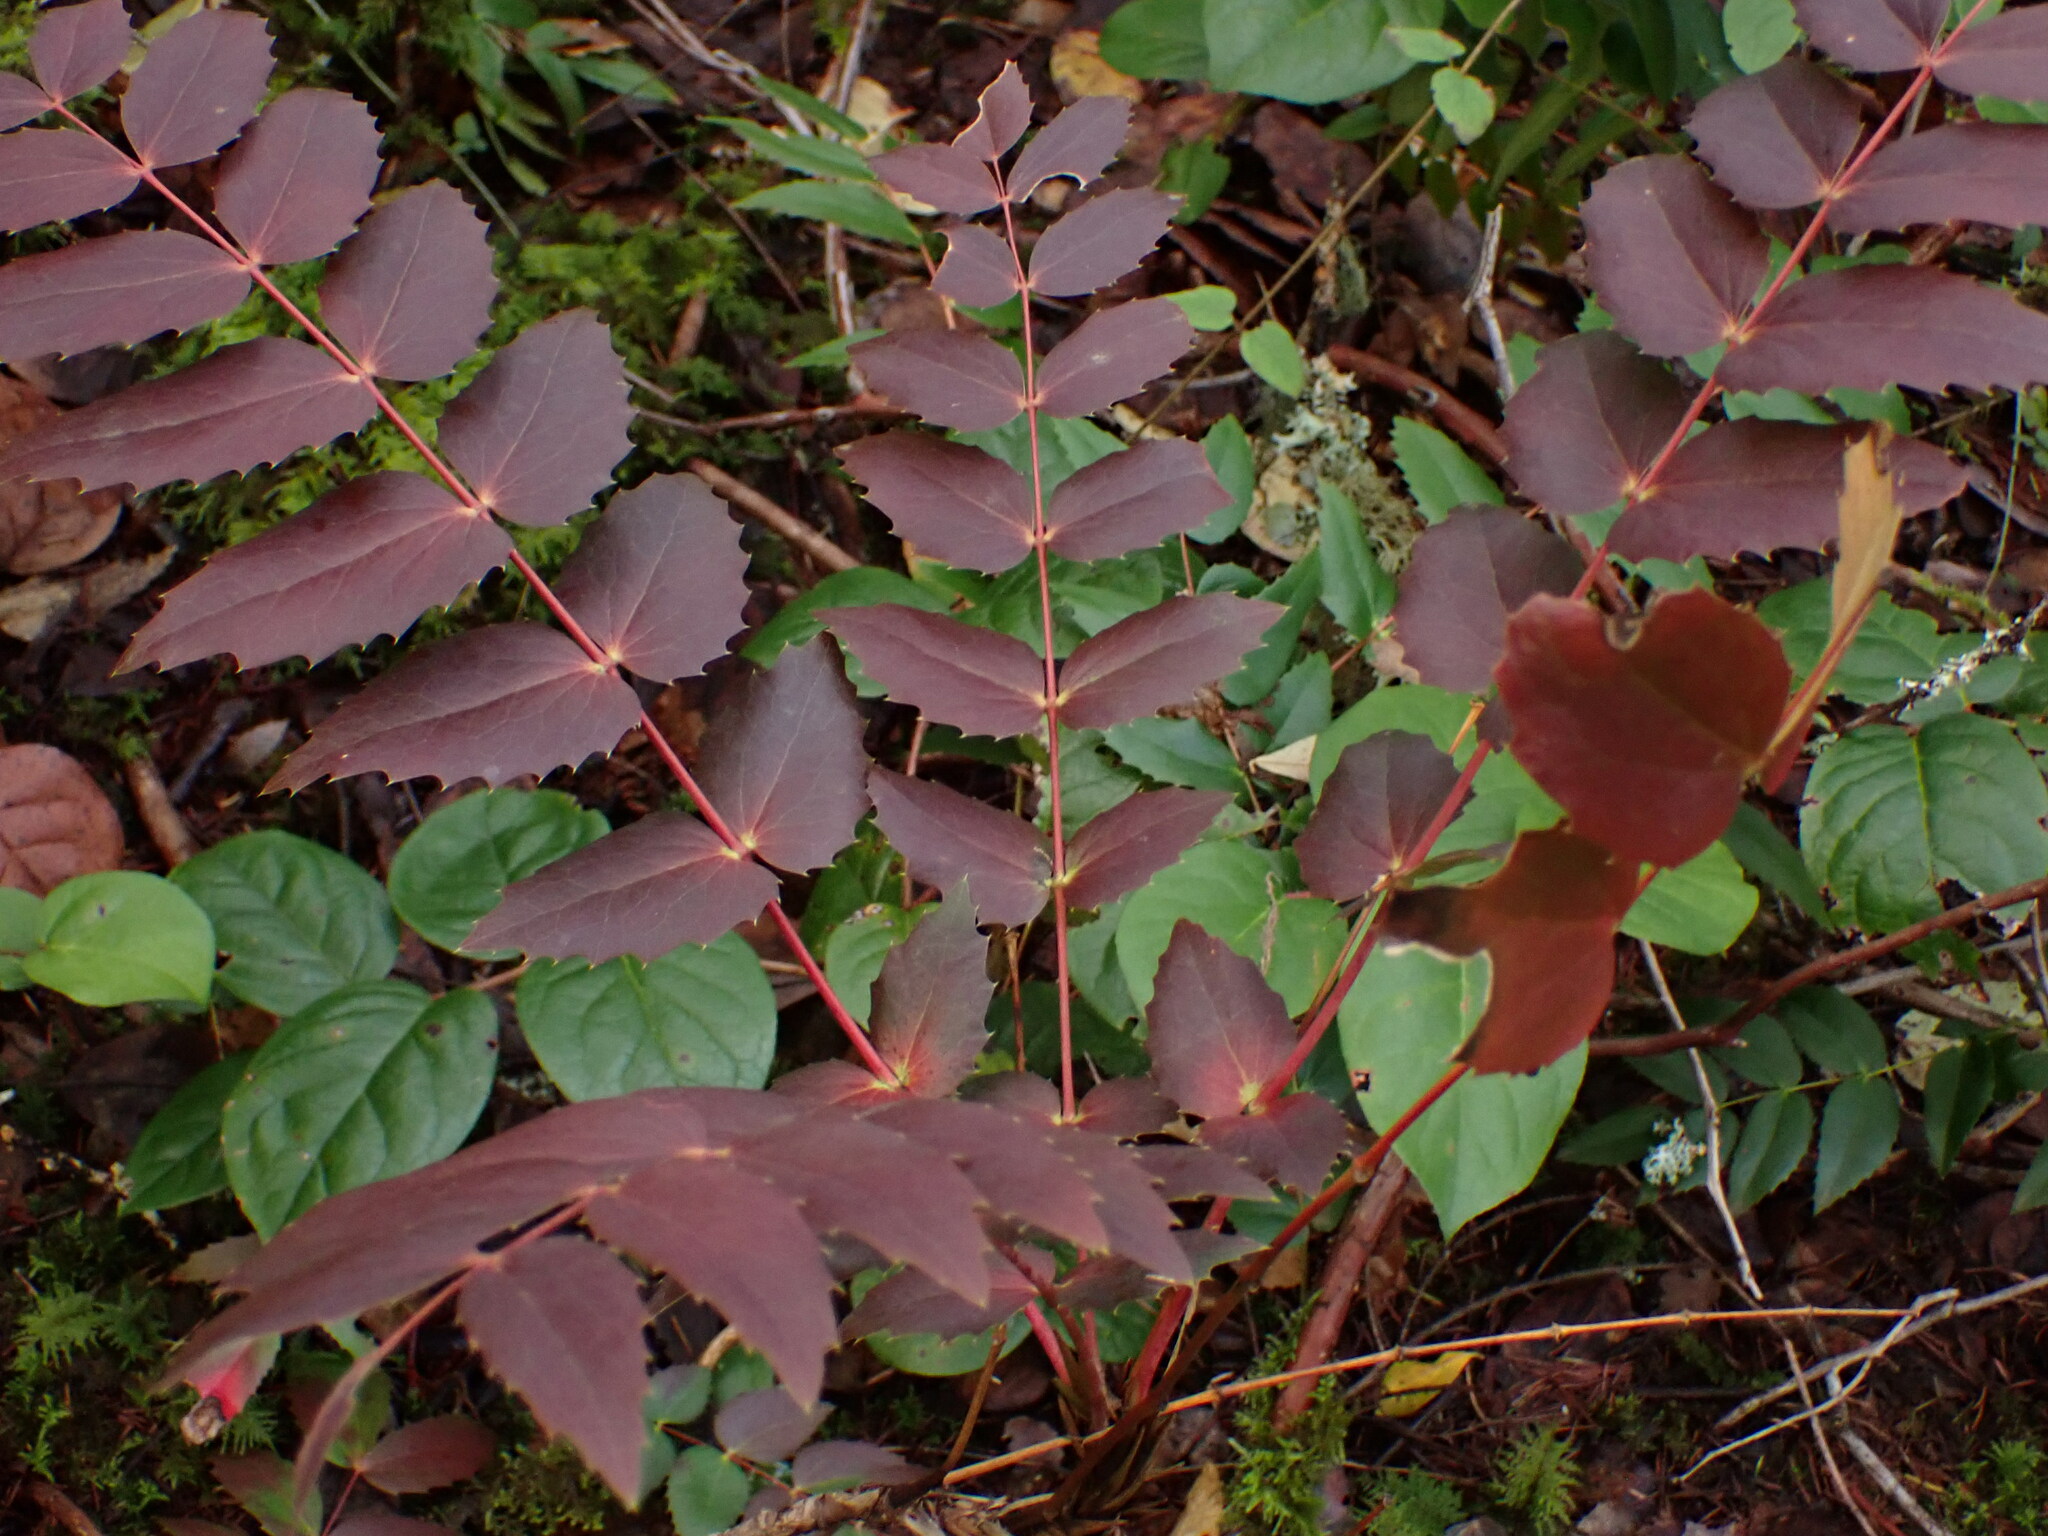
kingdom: Plantae
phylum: Tracheophyta
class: Magnoliopsida
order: Ranunculales
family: Berberidaceae
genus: Mahonia
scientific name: Mahonia nervosa
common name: Cascade oregon-grape
